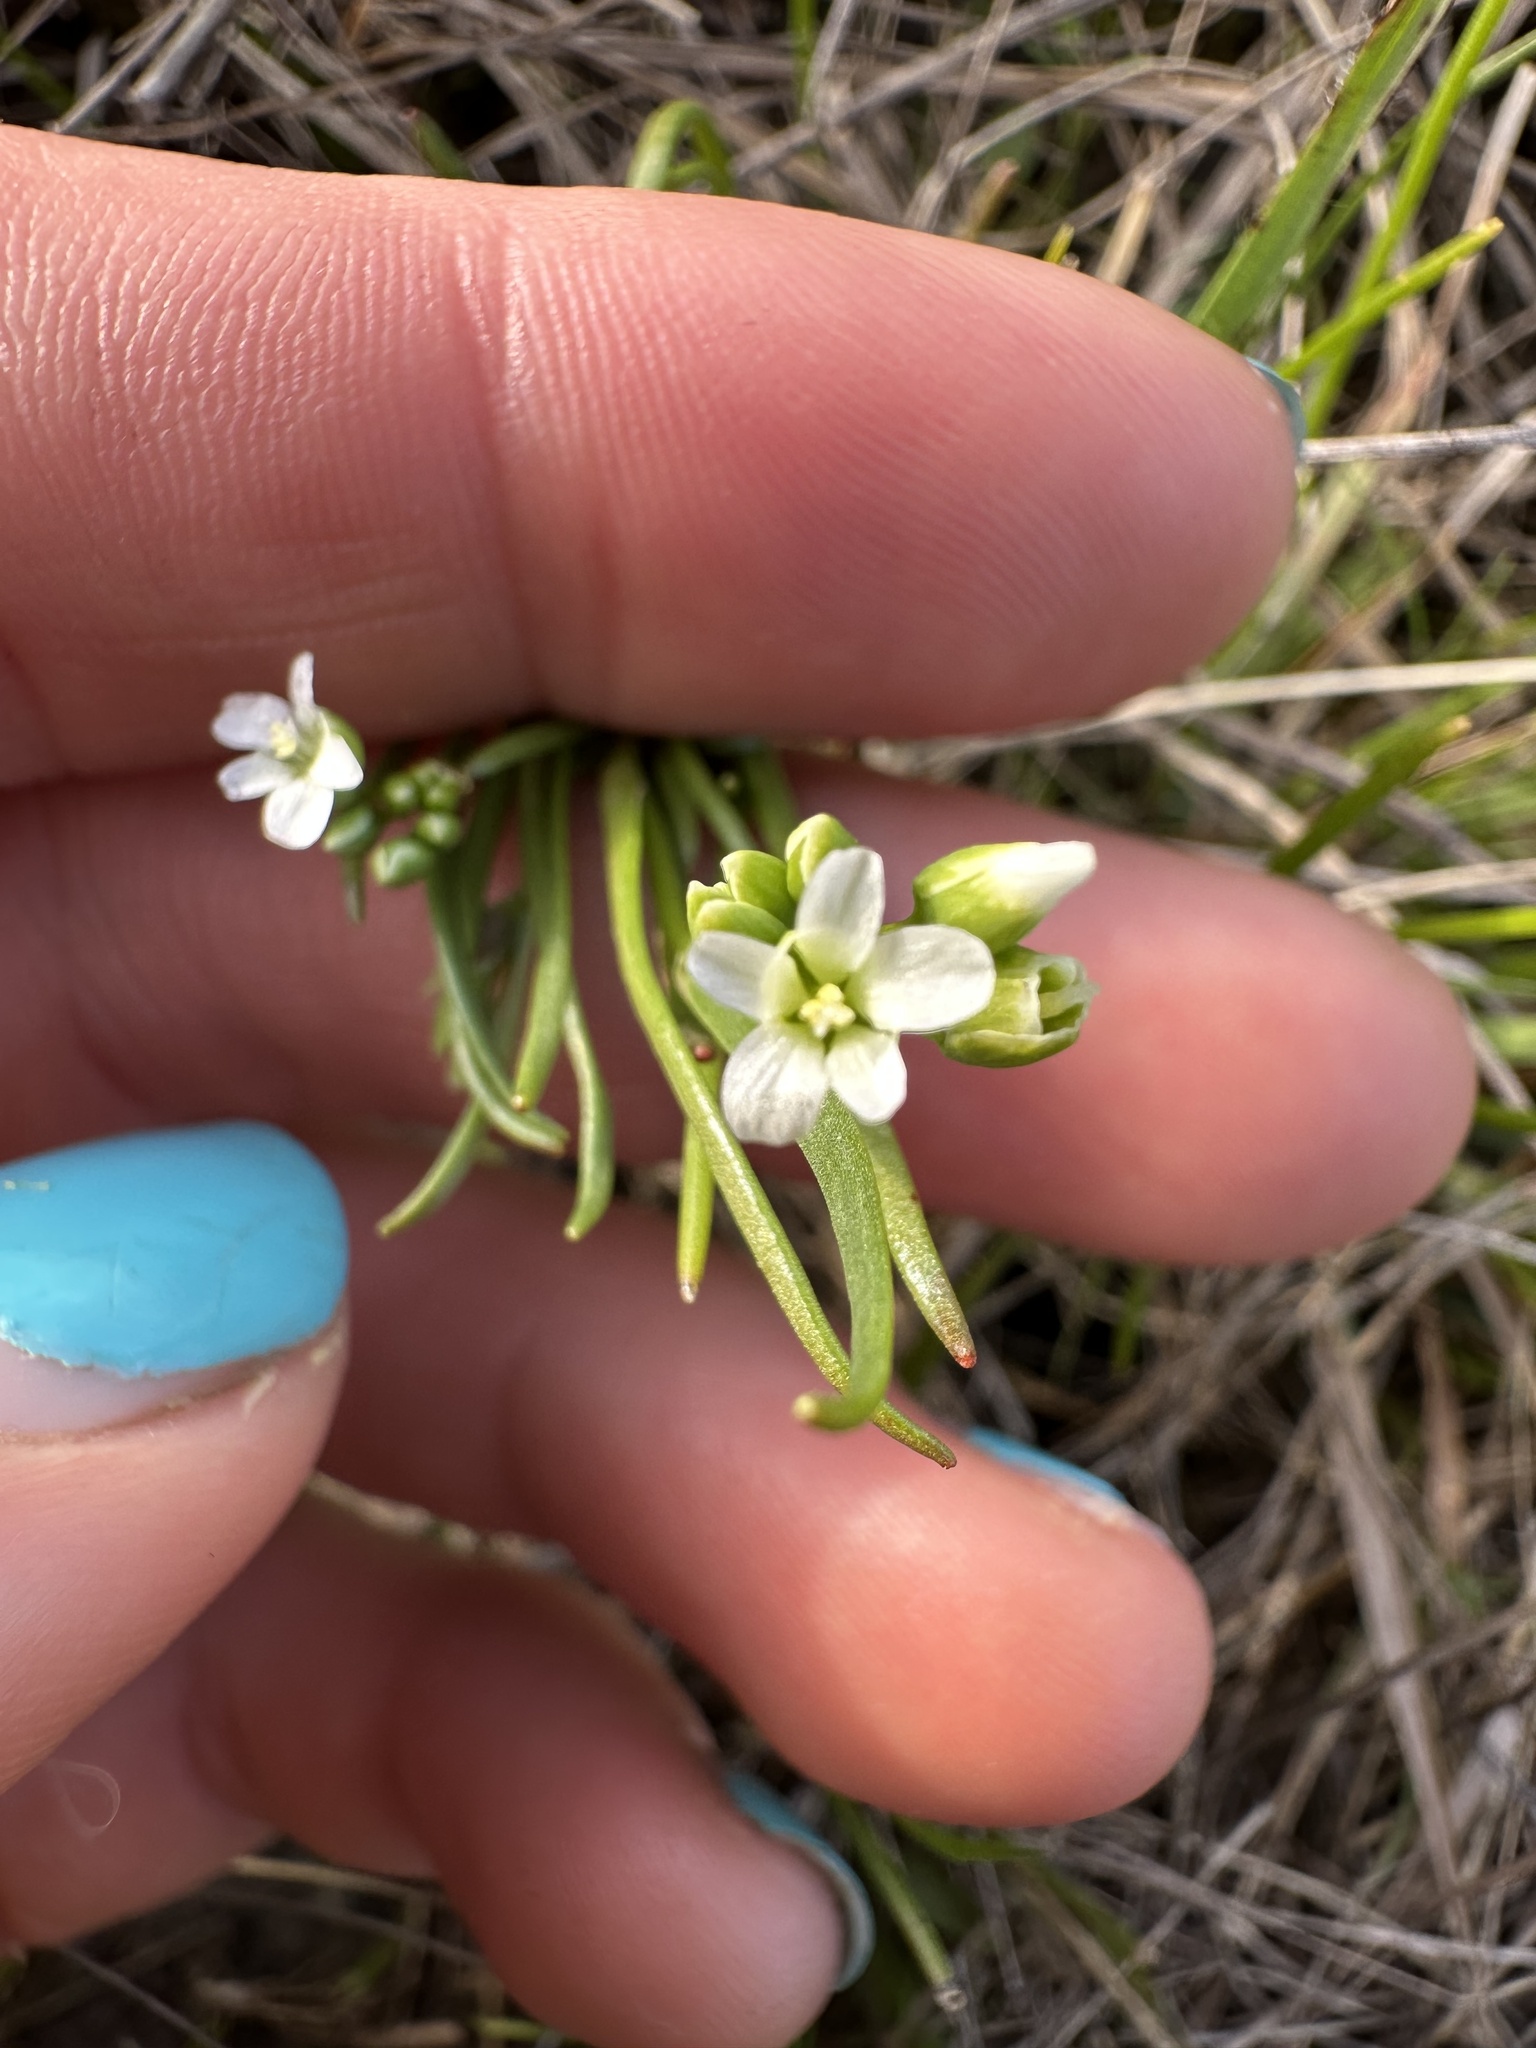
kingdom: Plantae
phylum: Tracheophyta
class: Magnoliopsida
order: Caryophyllales
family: Montiaceae
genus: Montia
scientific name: Montia linearis
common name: Narrow-leaf montia
